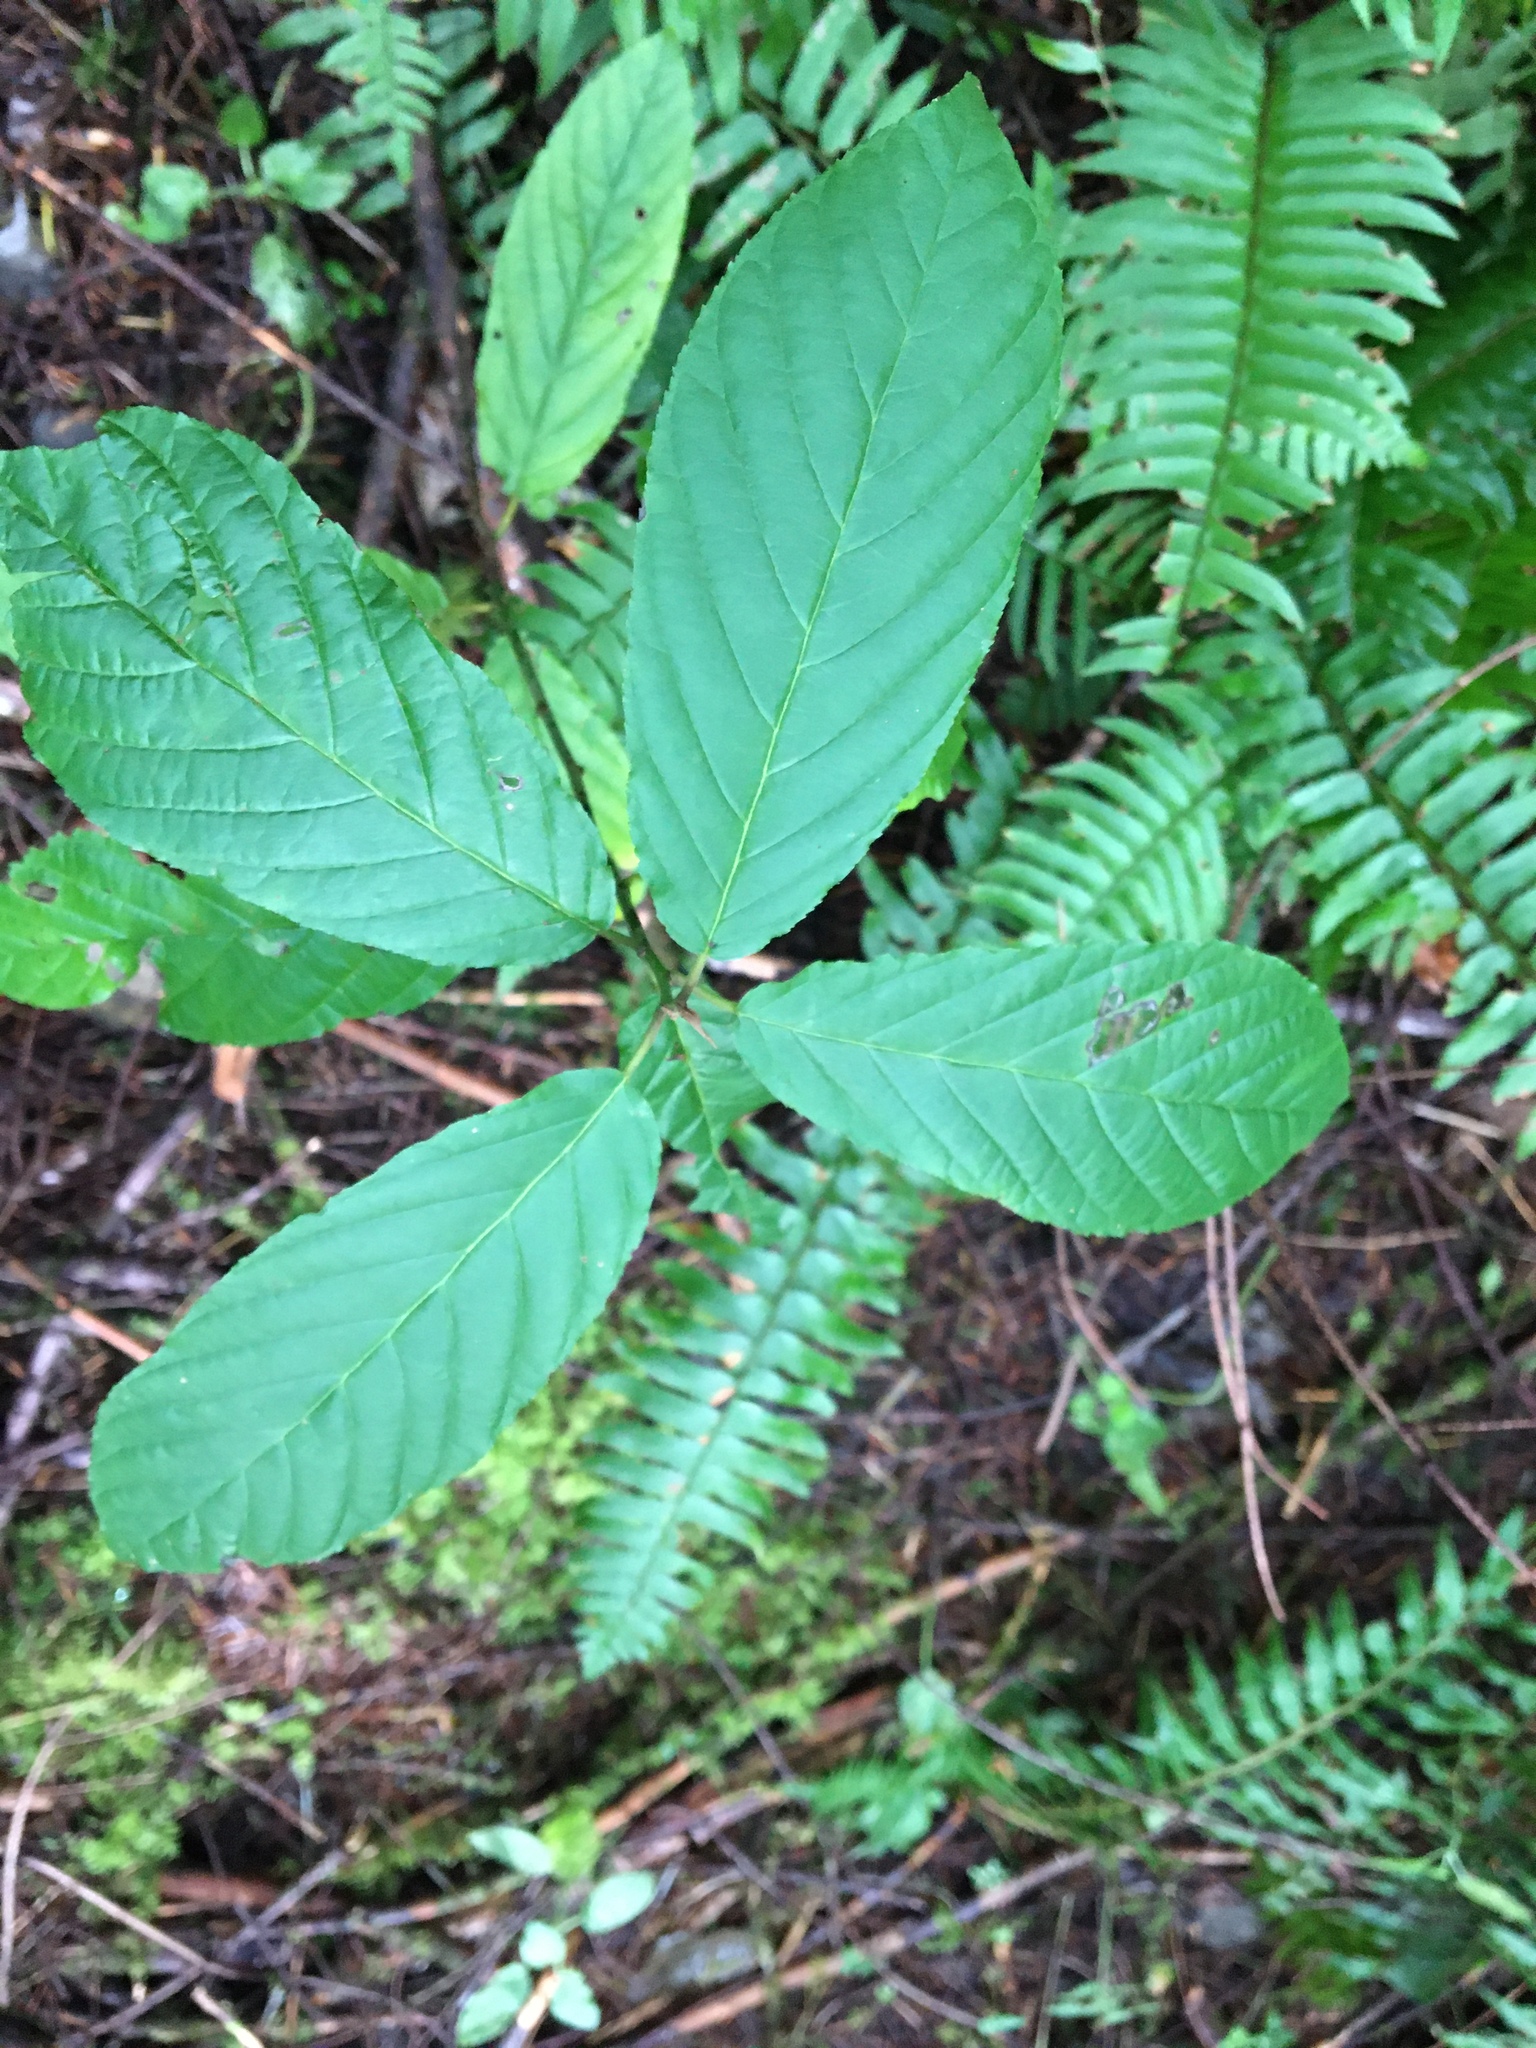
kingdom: Plantae
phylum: Tracheophyta
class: Magnoliopsida
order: Rosales
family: Rhamnaceae
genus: Frangula
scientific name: Frangula purshiana
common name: Cascara buckthorn
